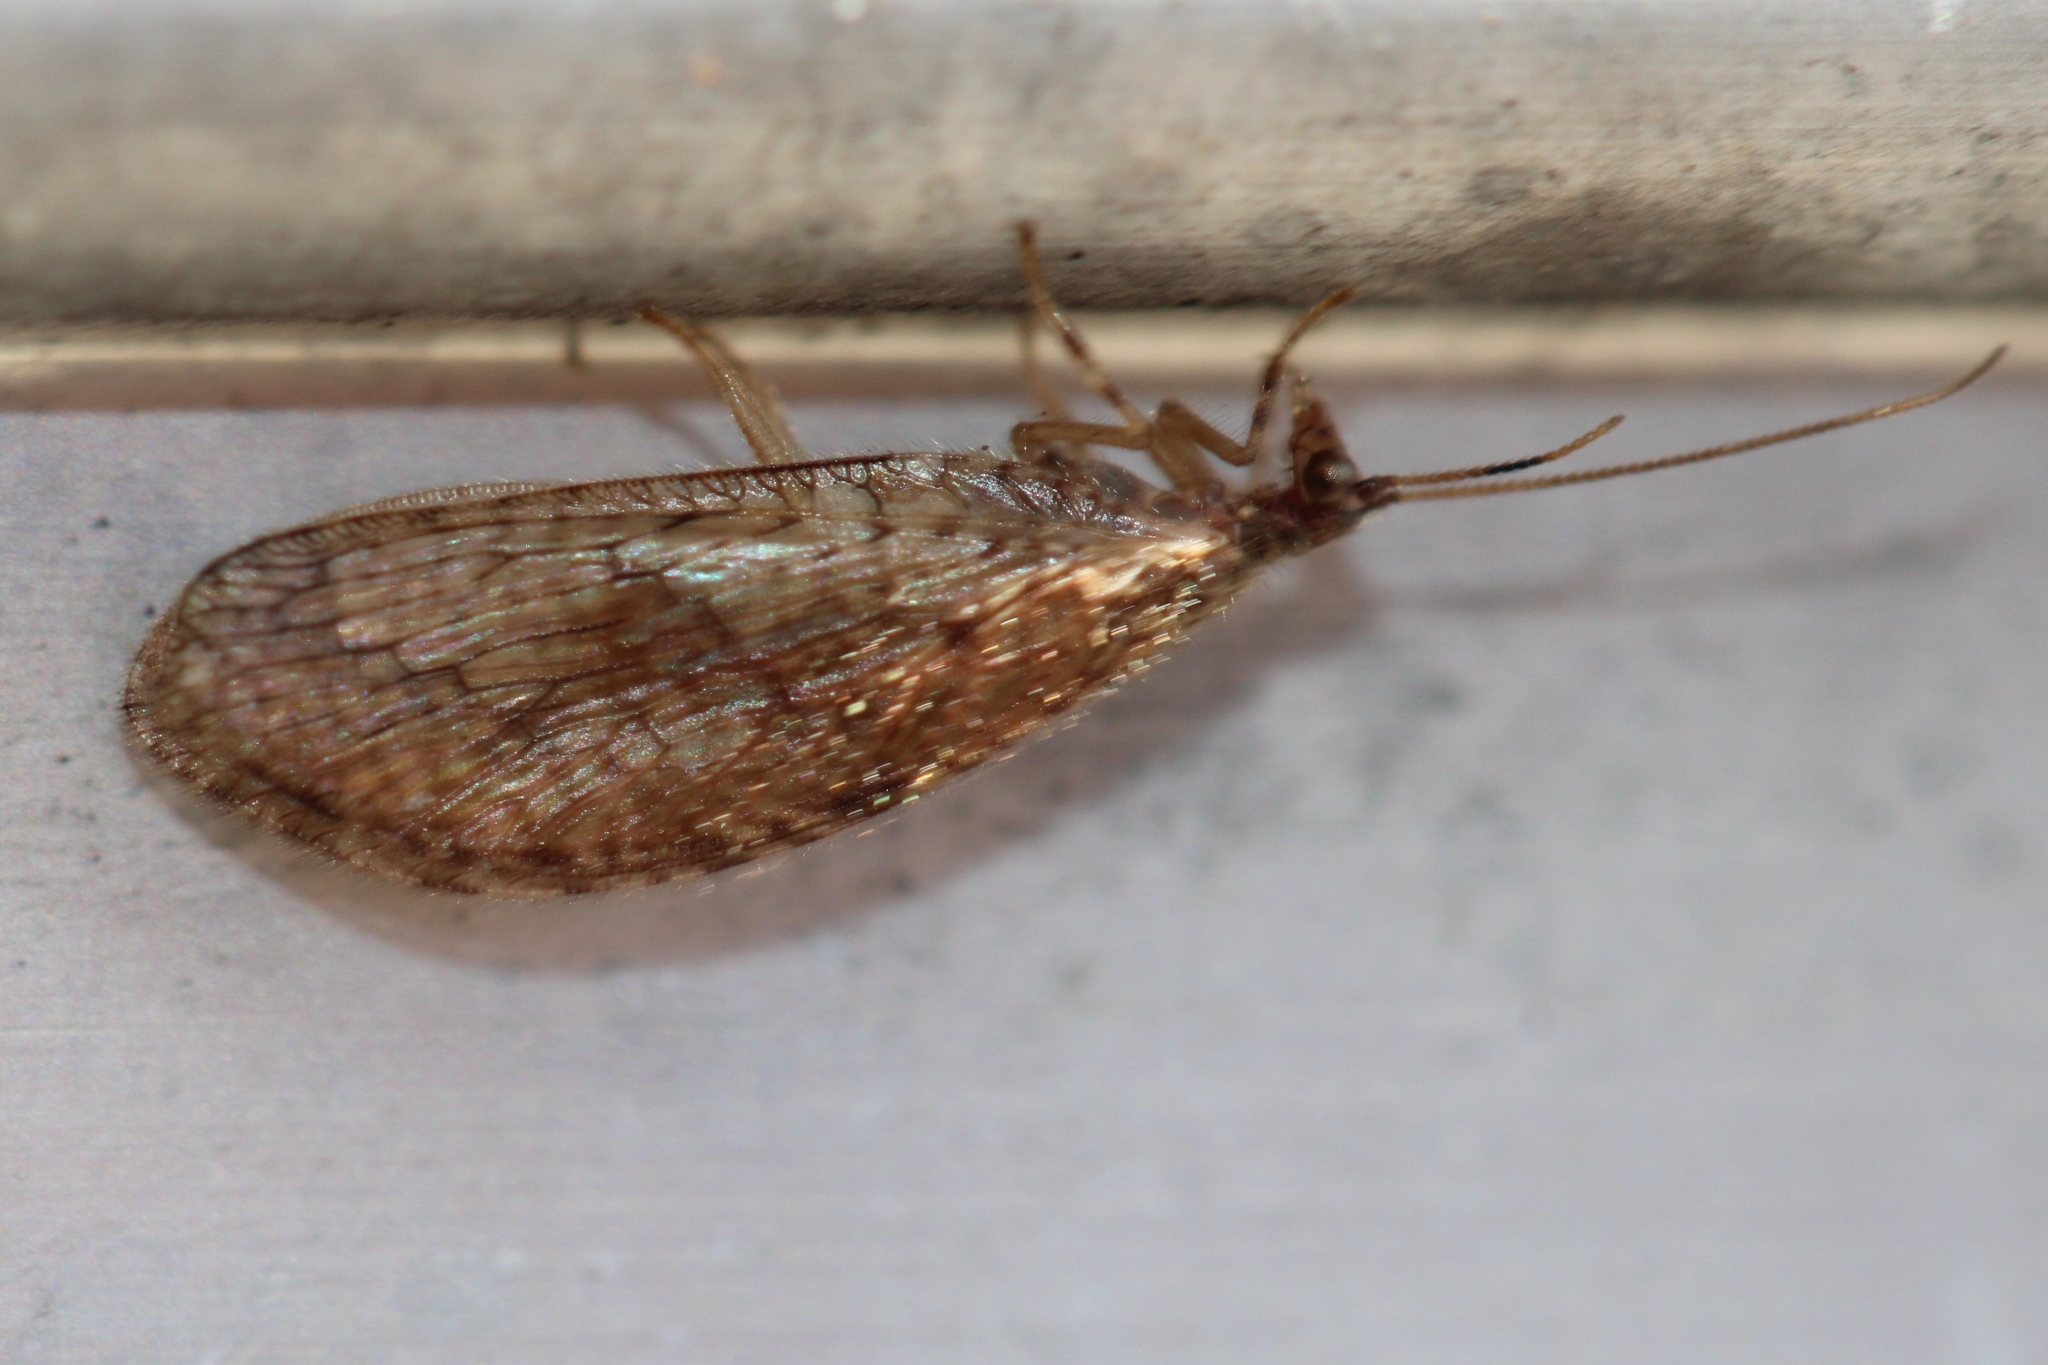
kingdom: Animalia
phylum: Arthropoda
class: Insecta
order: Neuroptera
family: Hemerobiidae
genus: Micromus
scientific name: Micromus posticus
